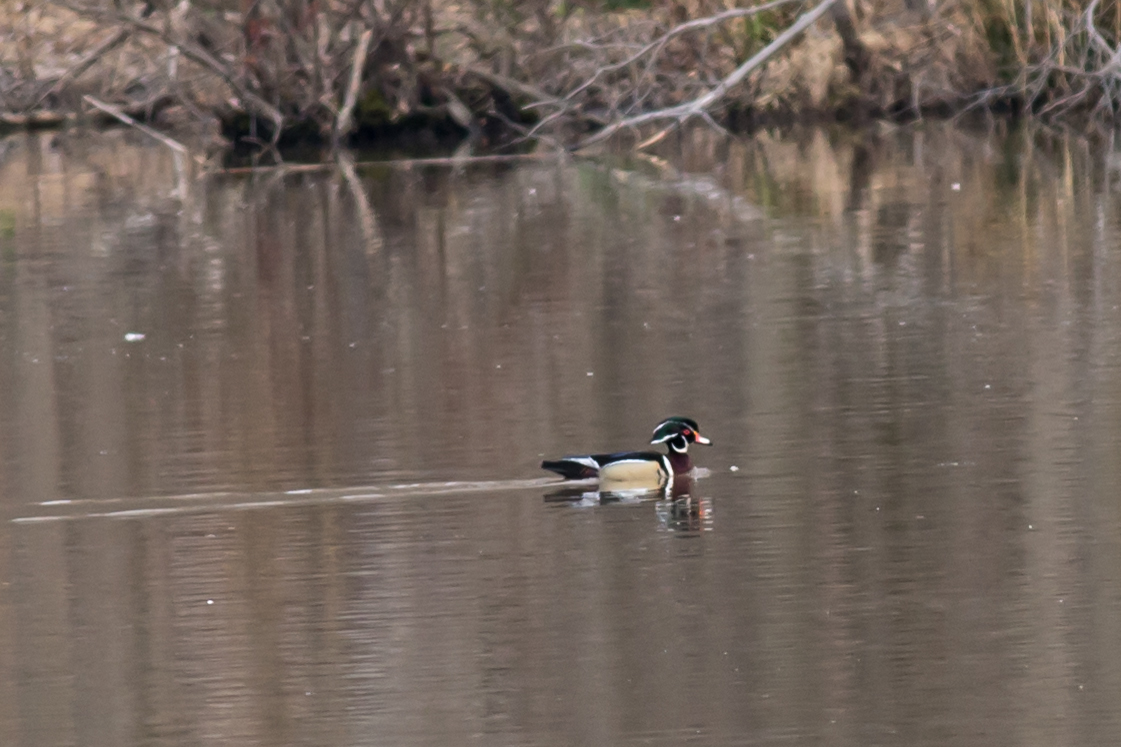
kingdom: Animalia
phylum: Chordata
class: Aves
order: Anseriformes
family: Anatidae
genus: Aix
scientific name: Aix sponsa
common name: Wood duck
